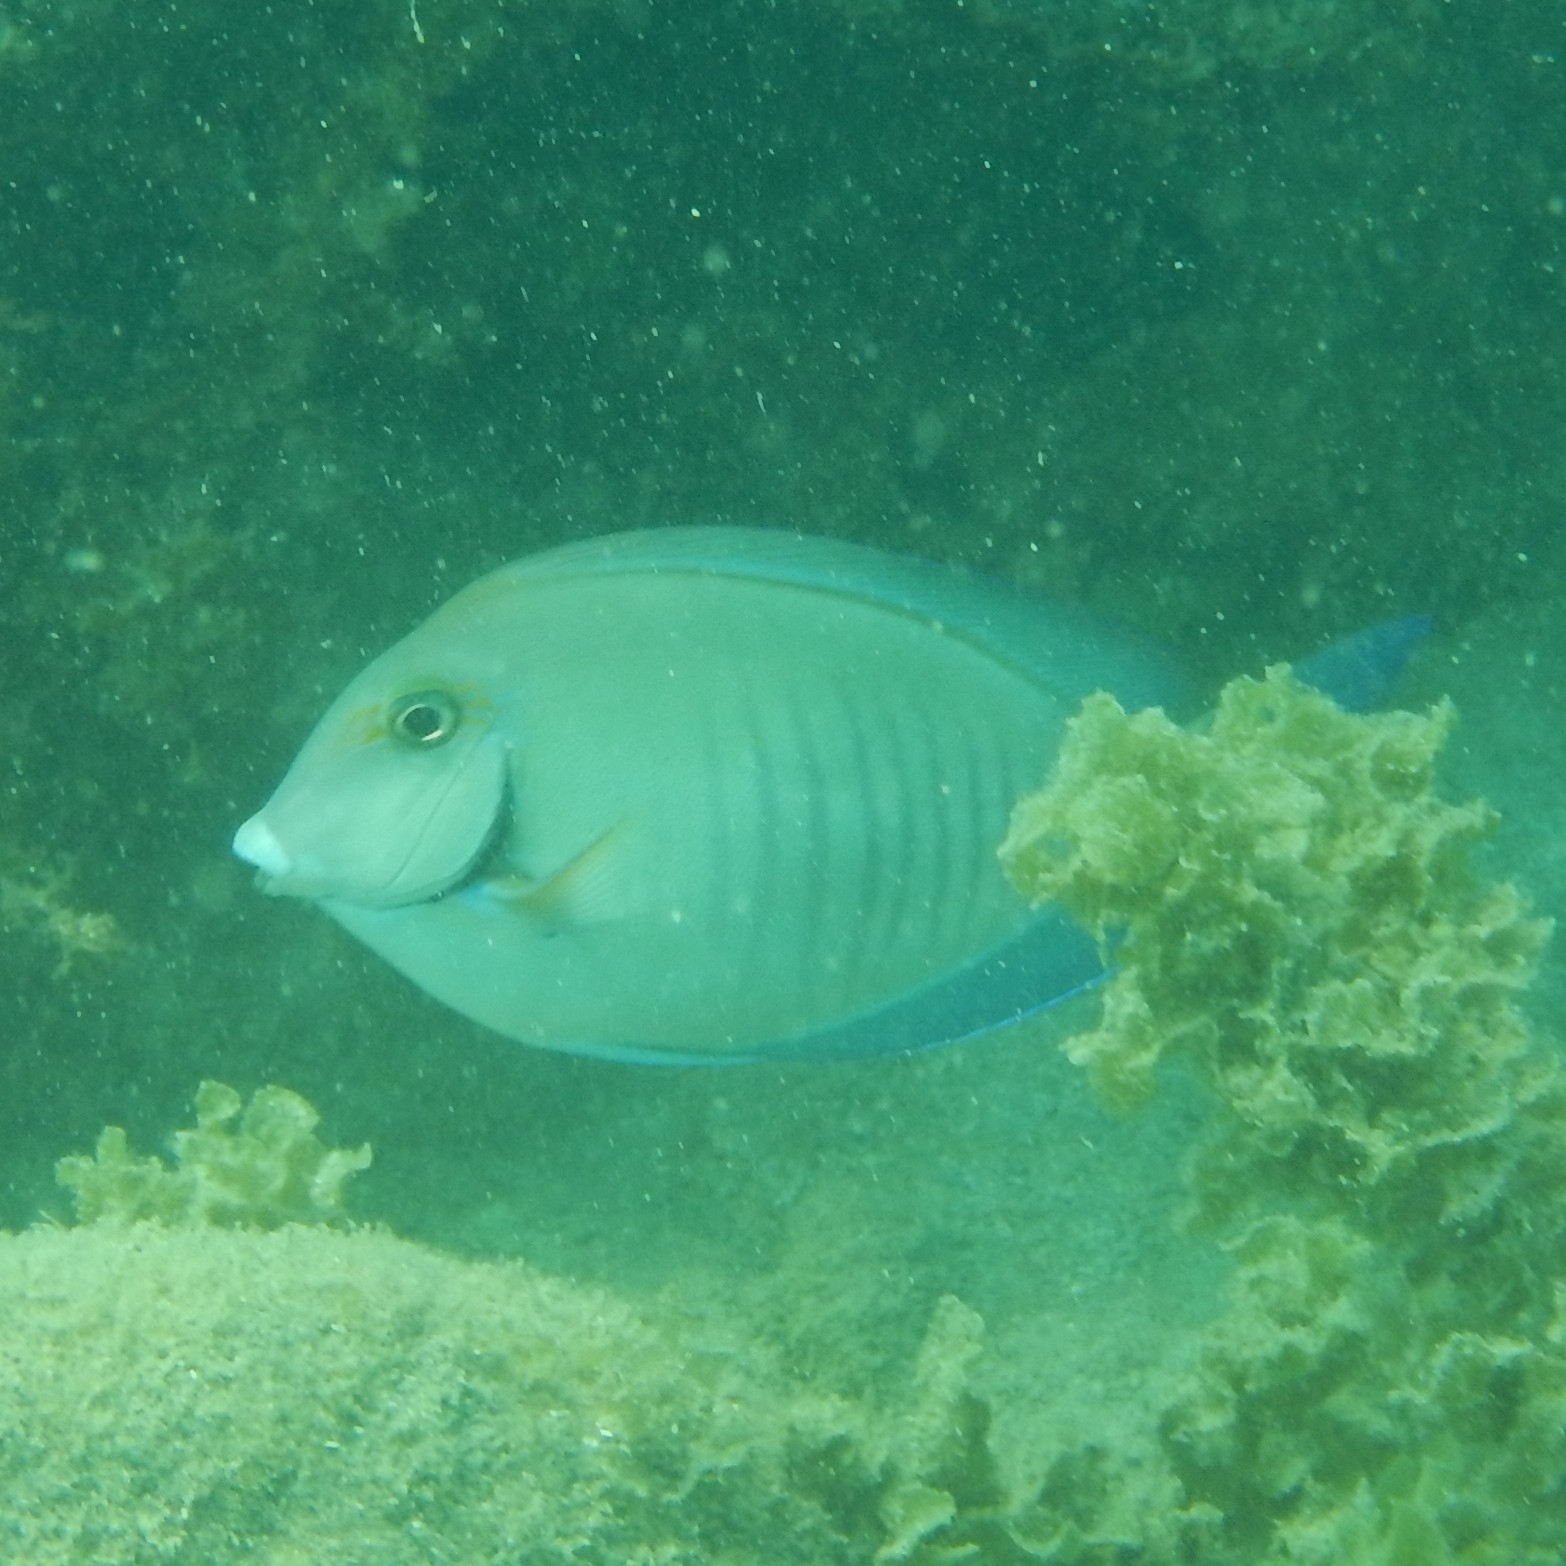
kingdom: Animalia
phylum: Chordata
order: Perciformes
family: Acanthuridae
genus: Acanthurus
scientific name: Acanthurus chirurgus
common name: Doctorfish
